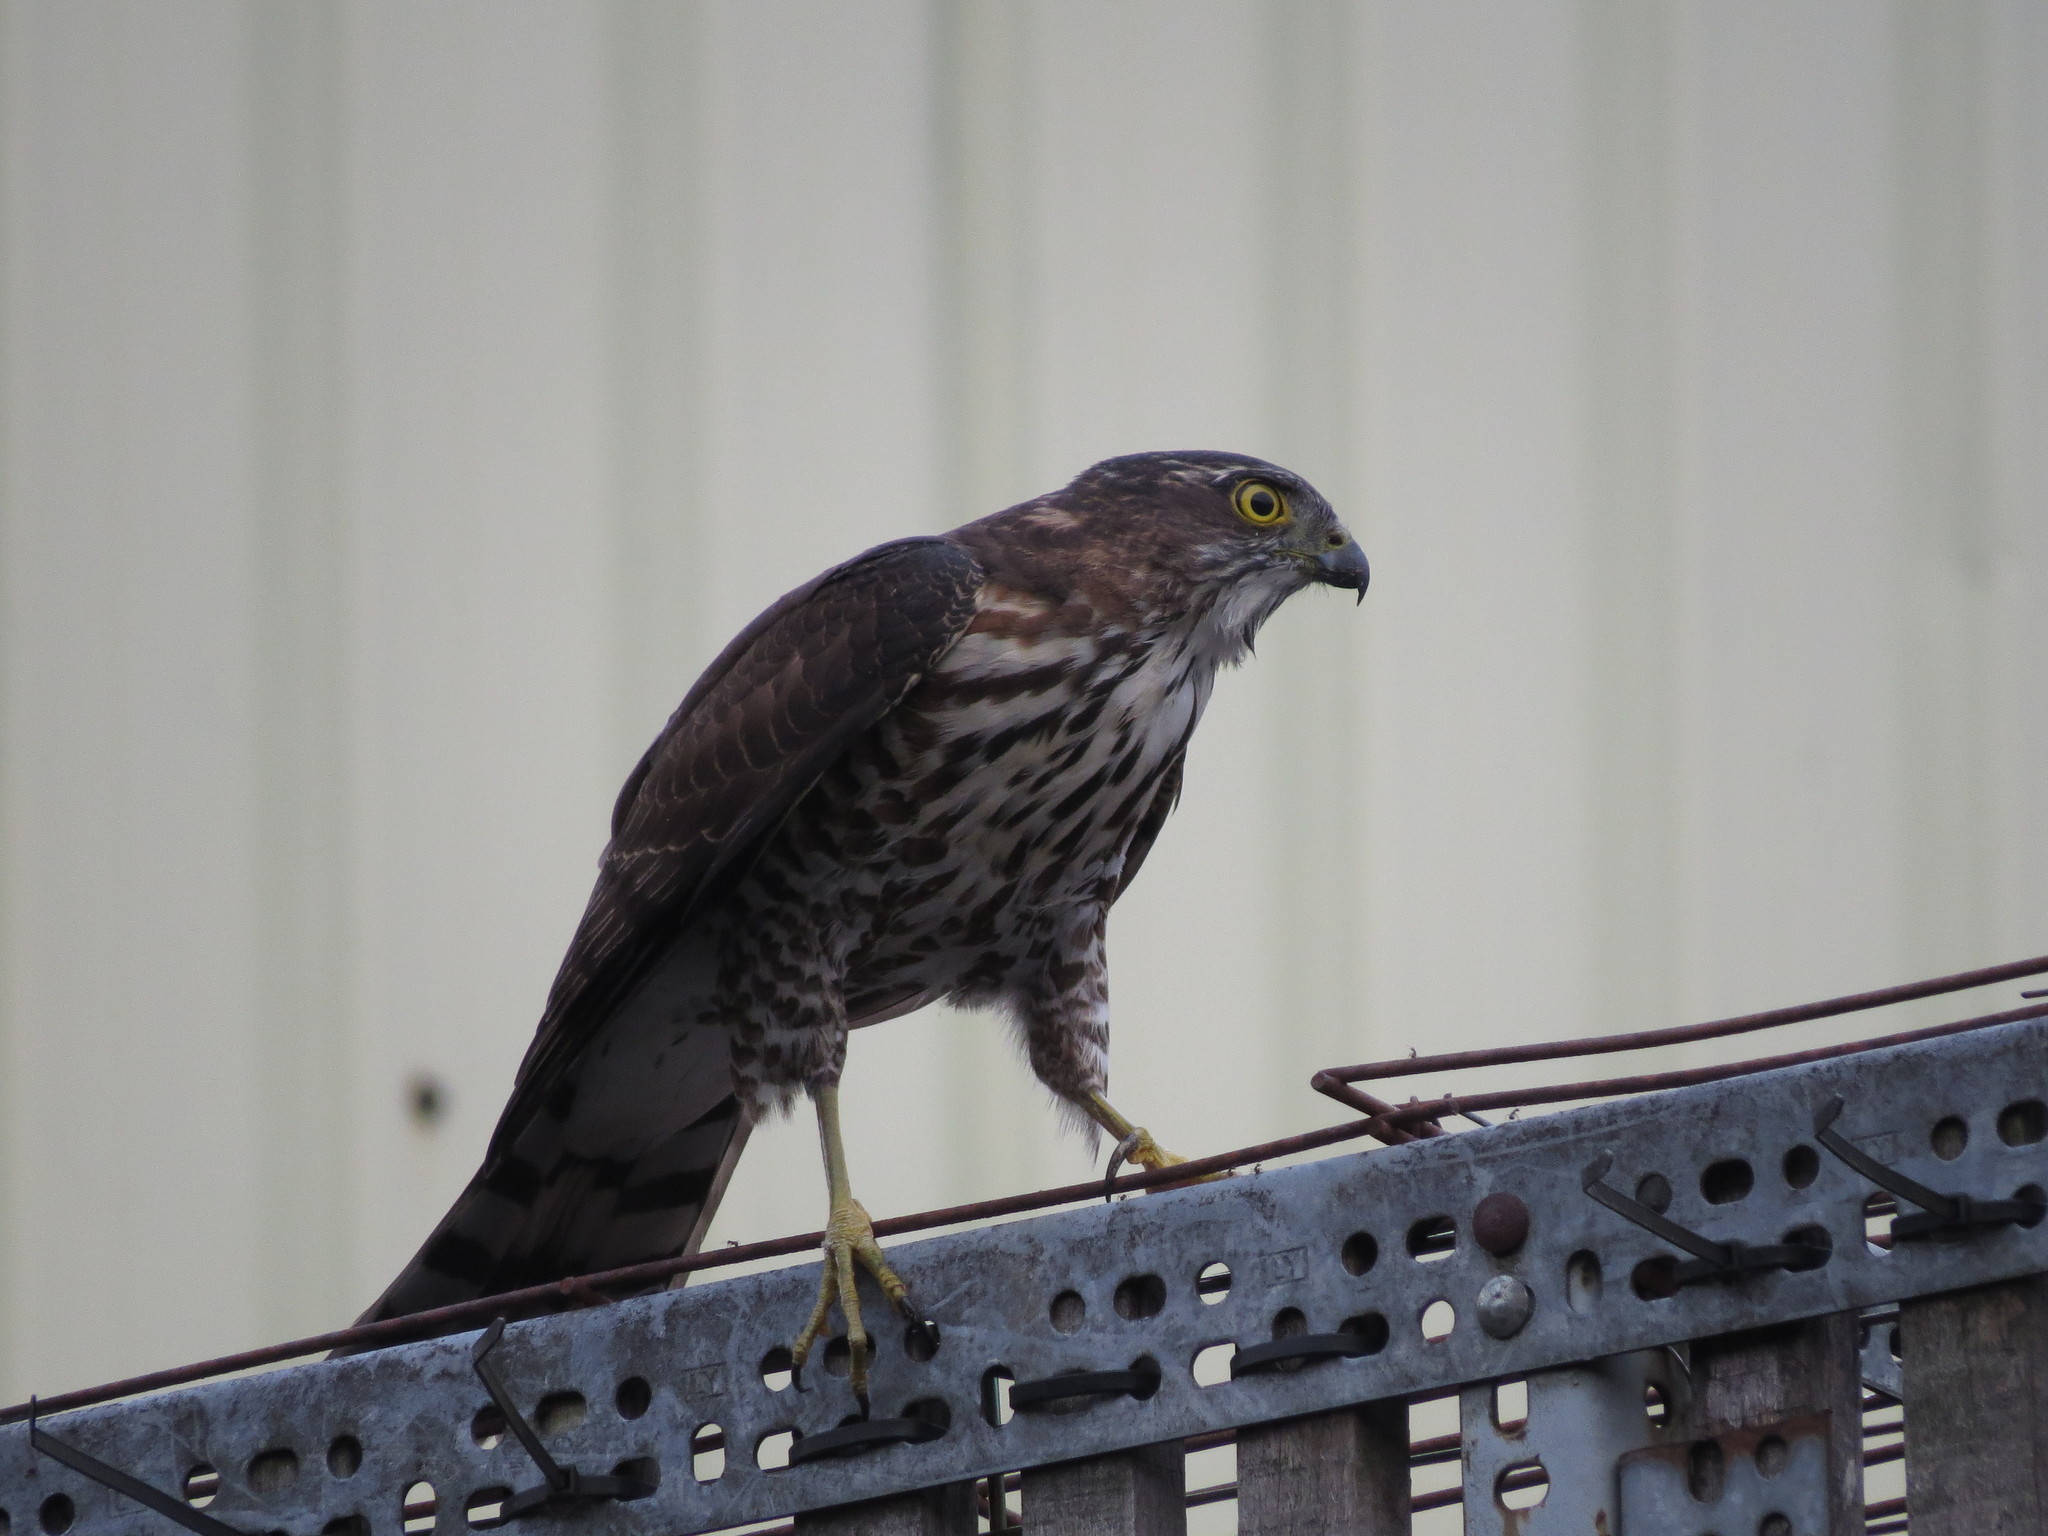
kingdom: Animalia
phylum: Chordata
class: Aves
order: Accipitriformes
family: Accipitridae
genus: Accipiter
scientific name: Accipiter virgatus
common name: Besra
